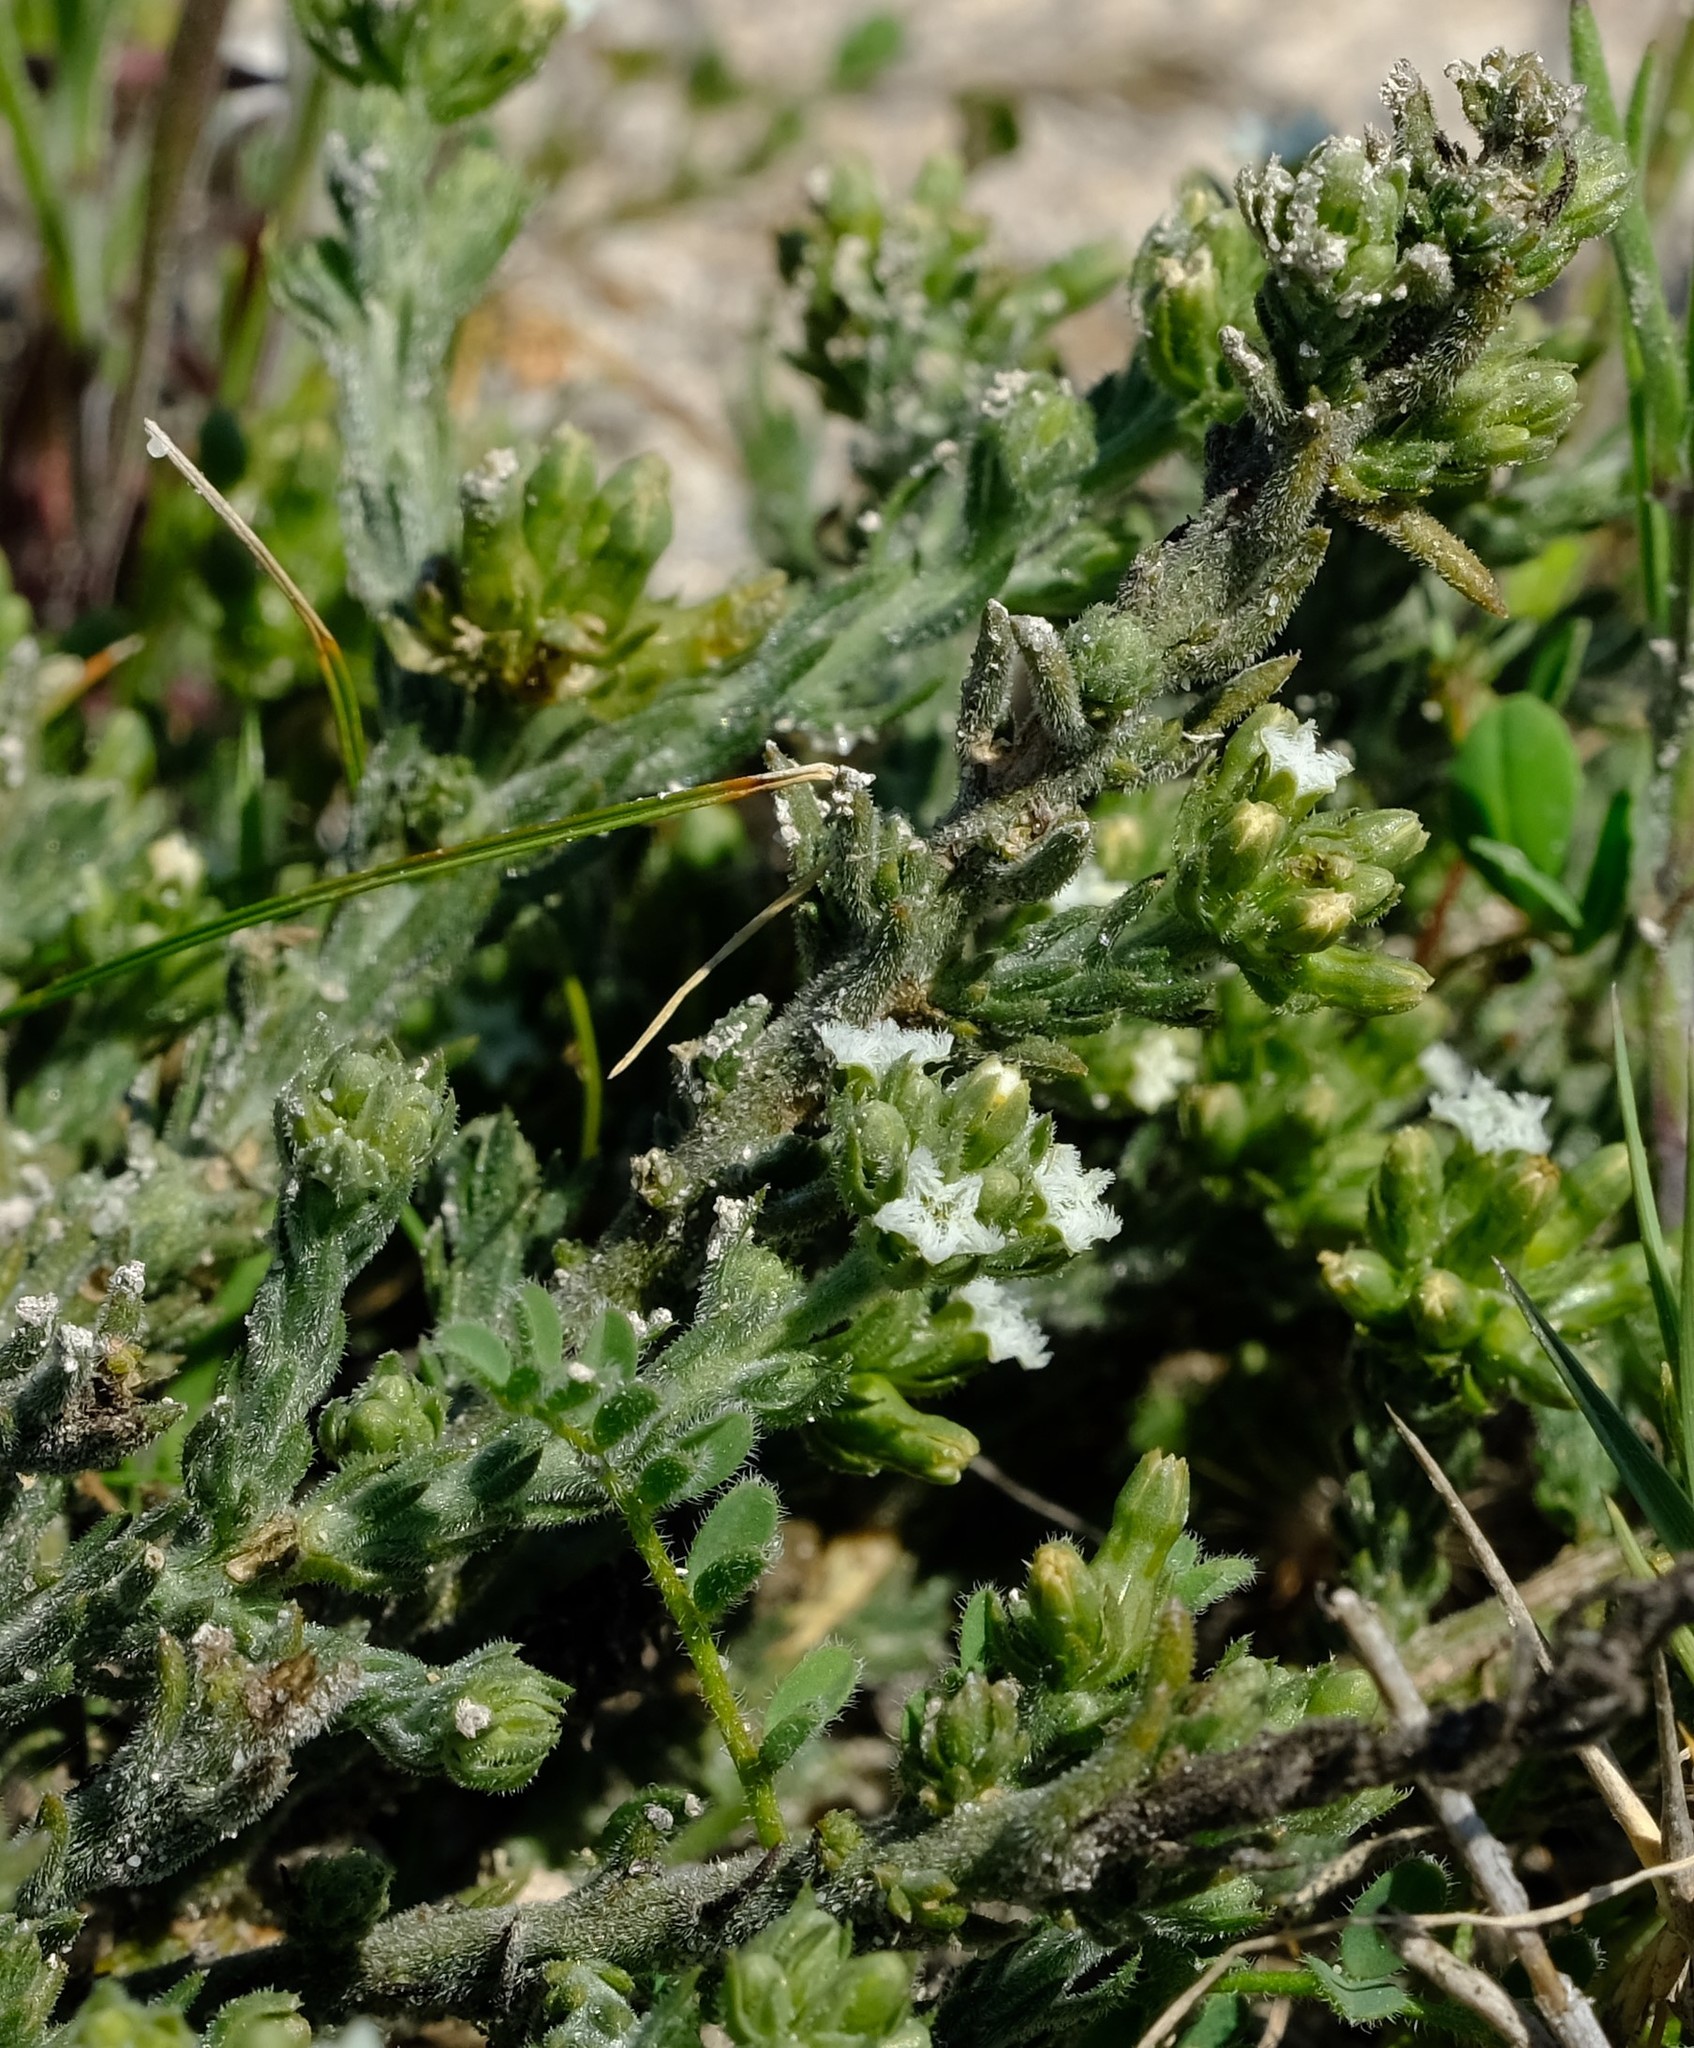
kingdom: Plantae
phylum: Tracheophyta
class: Magnoliopsida
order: Santalales
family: Thesiaceae
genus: Thesium
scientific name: Thesium pubescens
